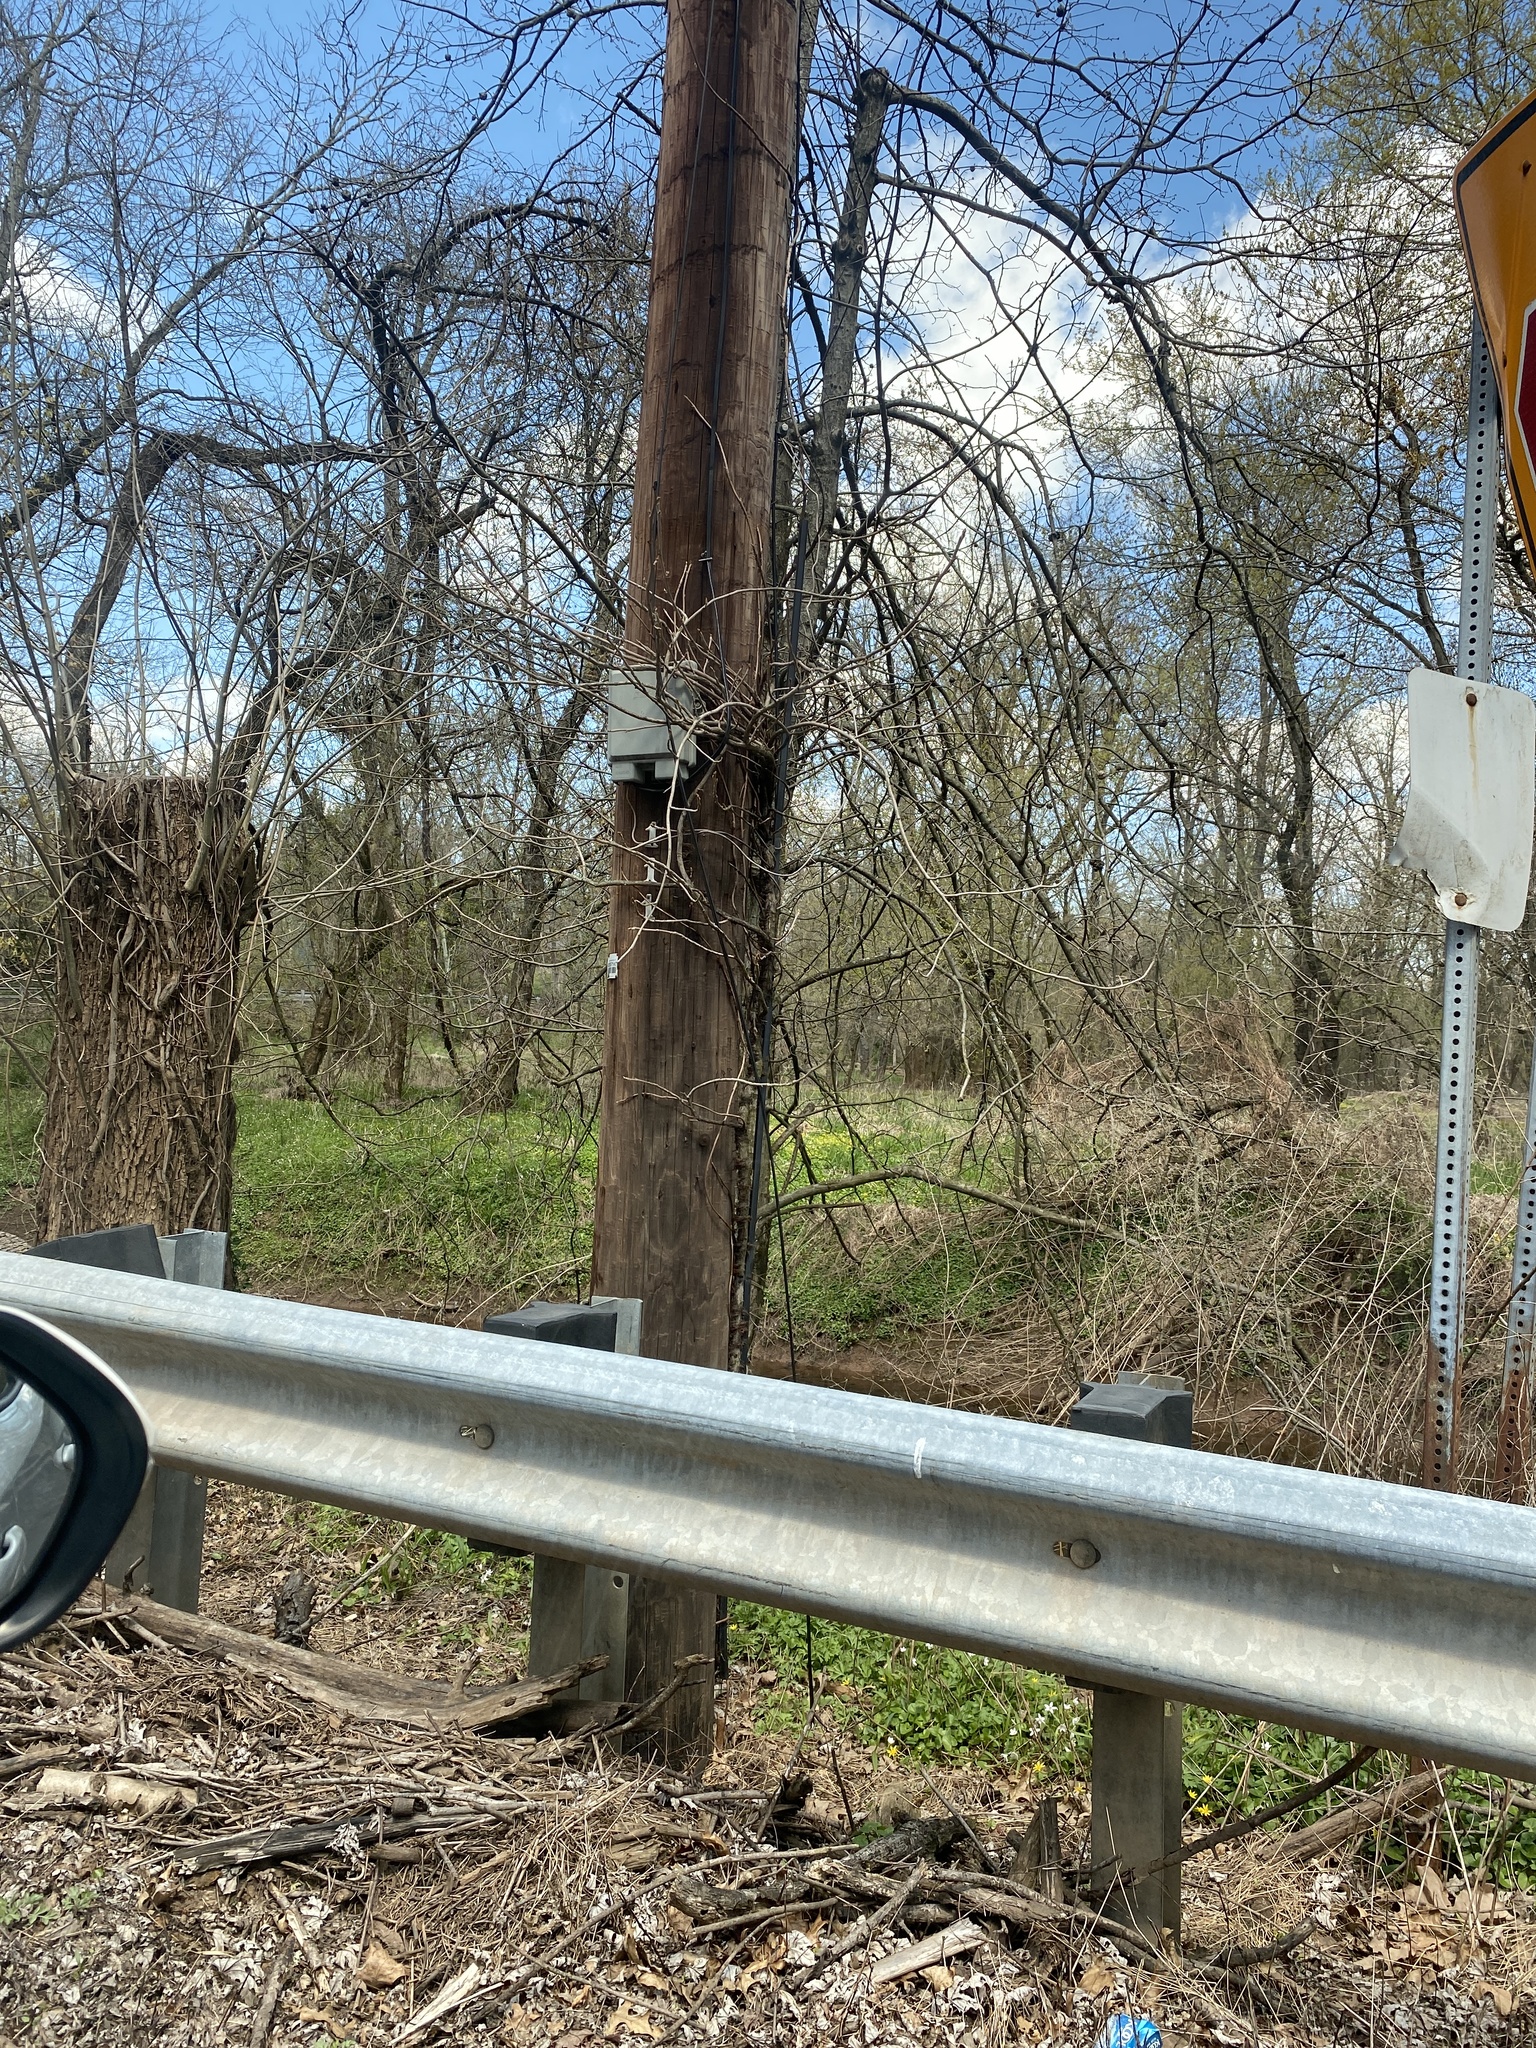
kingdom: Plantae
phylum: Tracheophyta
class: Magnoliopsida
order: Sapindales
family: Anacardiaceae
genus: Toxicodendron
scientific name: Toxicodendron radicans
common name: Poison ivy
